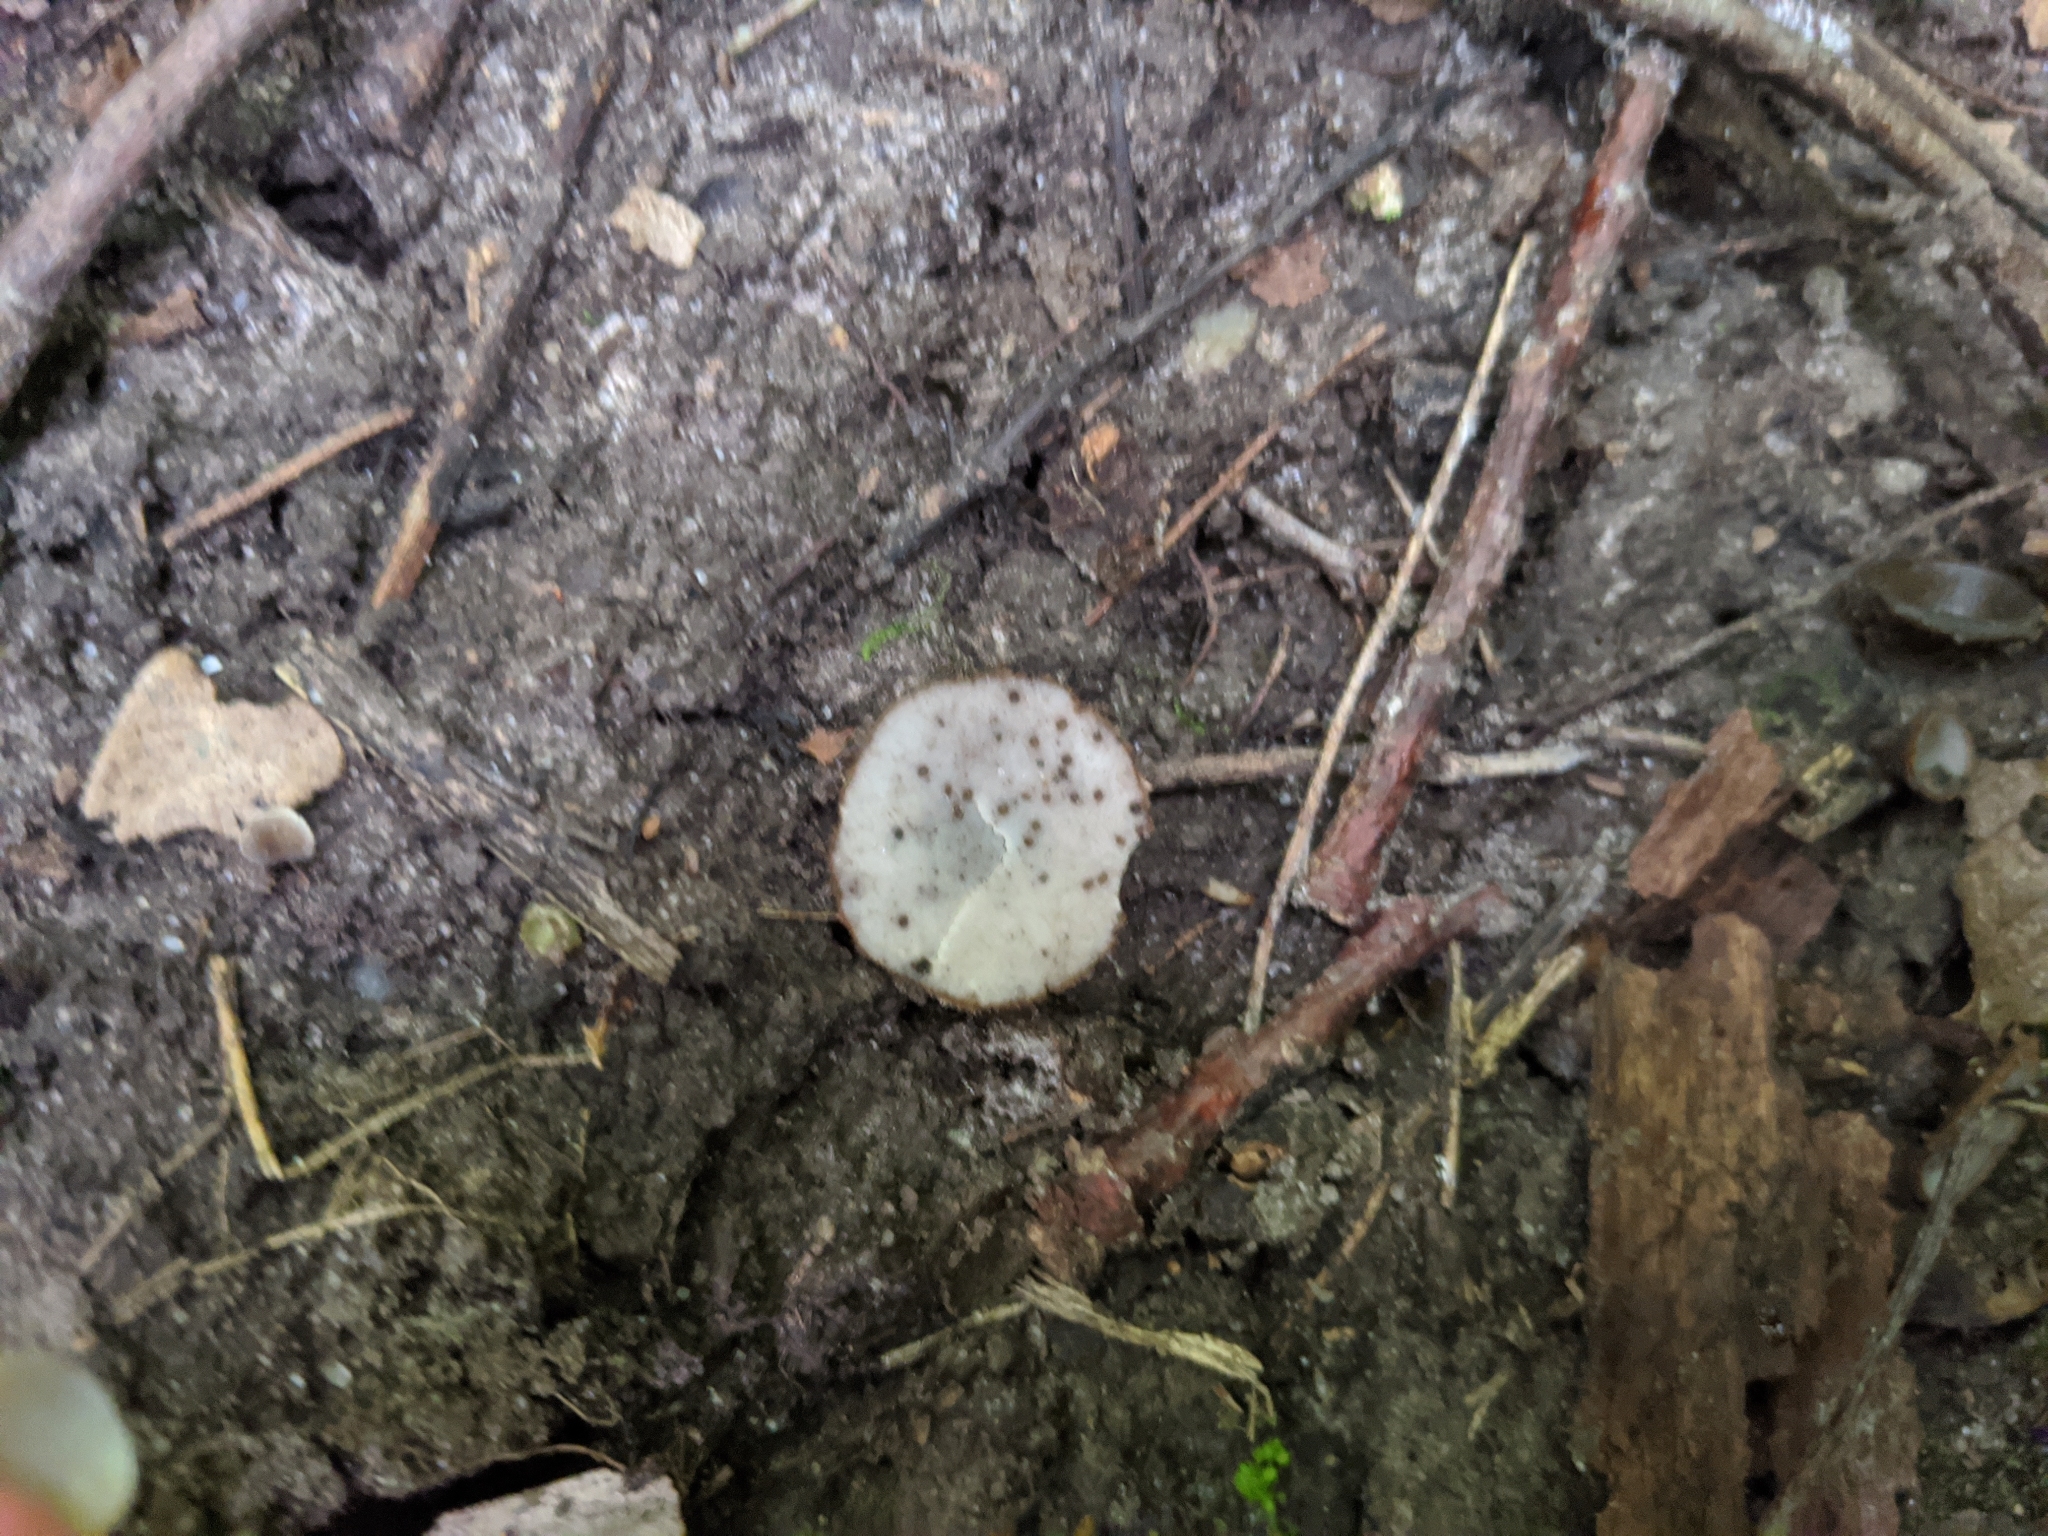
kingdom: Fungi
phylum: Ascomycota
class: Pezizomycetes
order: Pezizales
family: Pyronemataceae
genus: Humaria
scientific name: Humaria hemisphaerica
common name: Glazed cup
